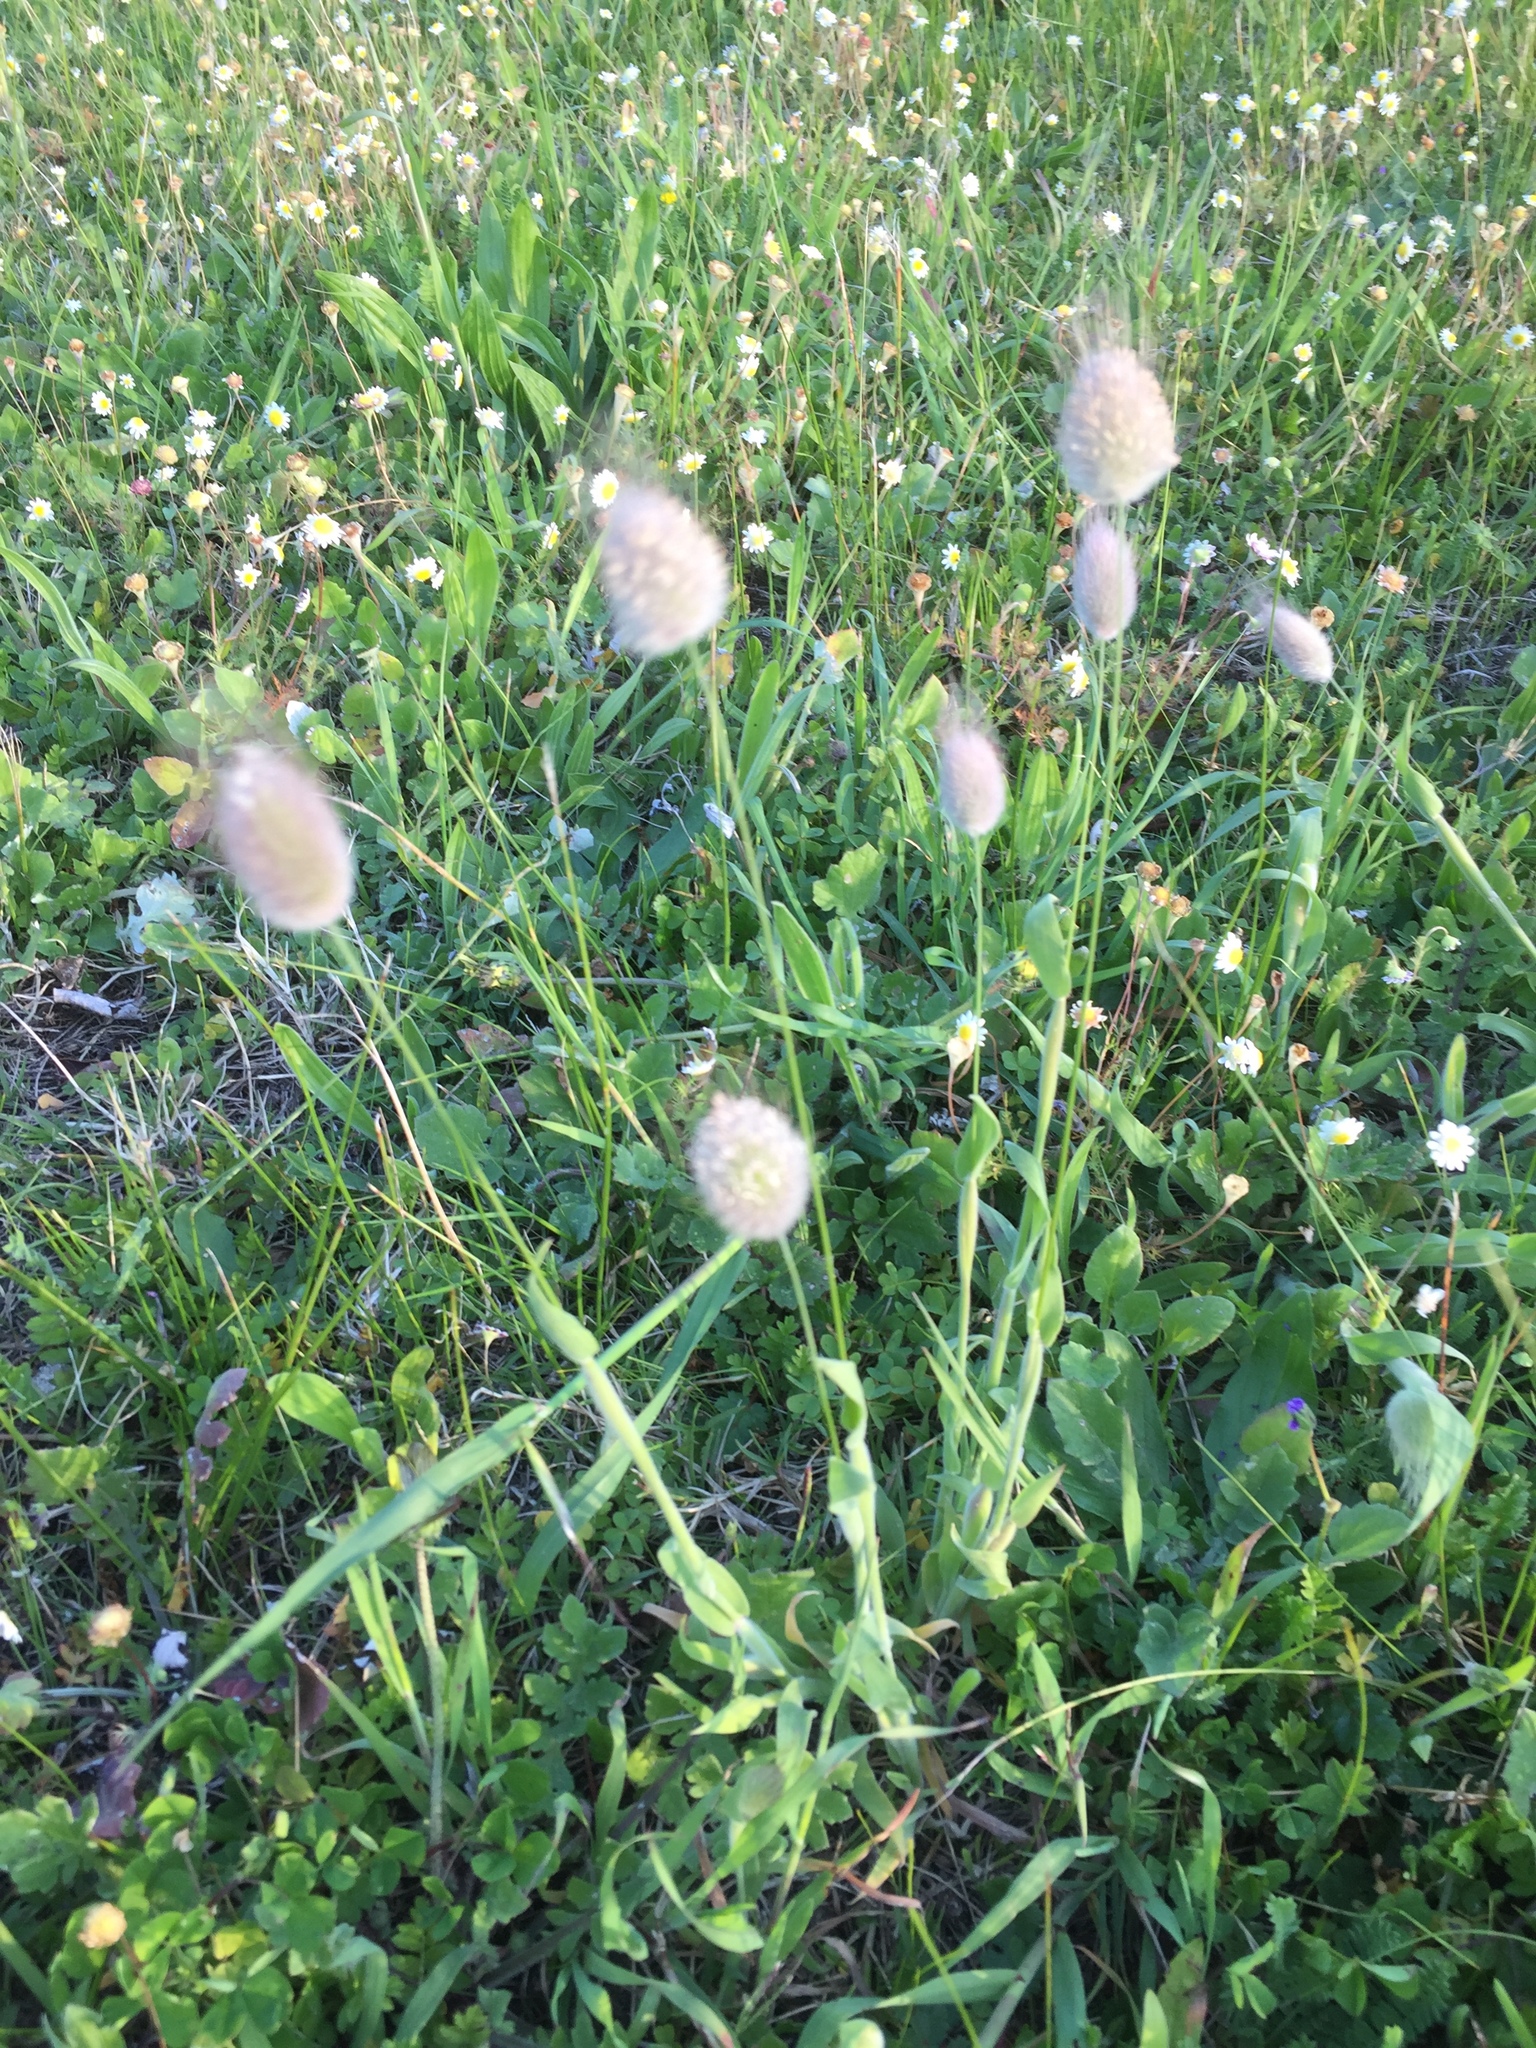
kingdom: Plantae
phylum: Tracheophyta
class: Liliopsida
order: Poales
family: Poaceae
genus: Lagurus
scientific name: Lagurus ovatus
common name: Hare's-tail
